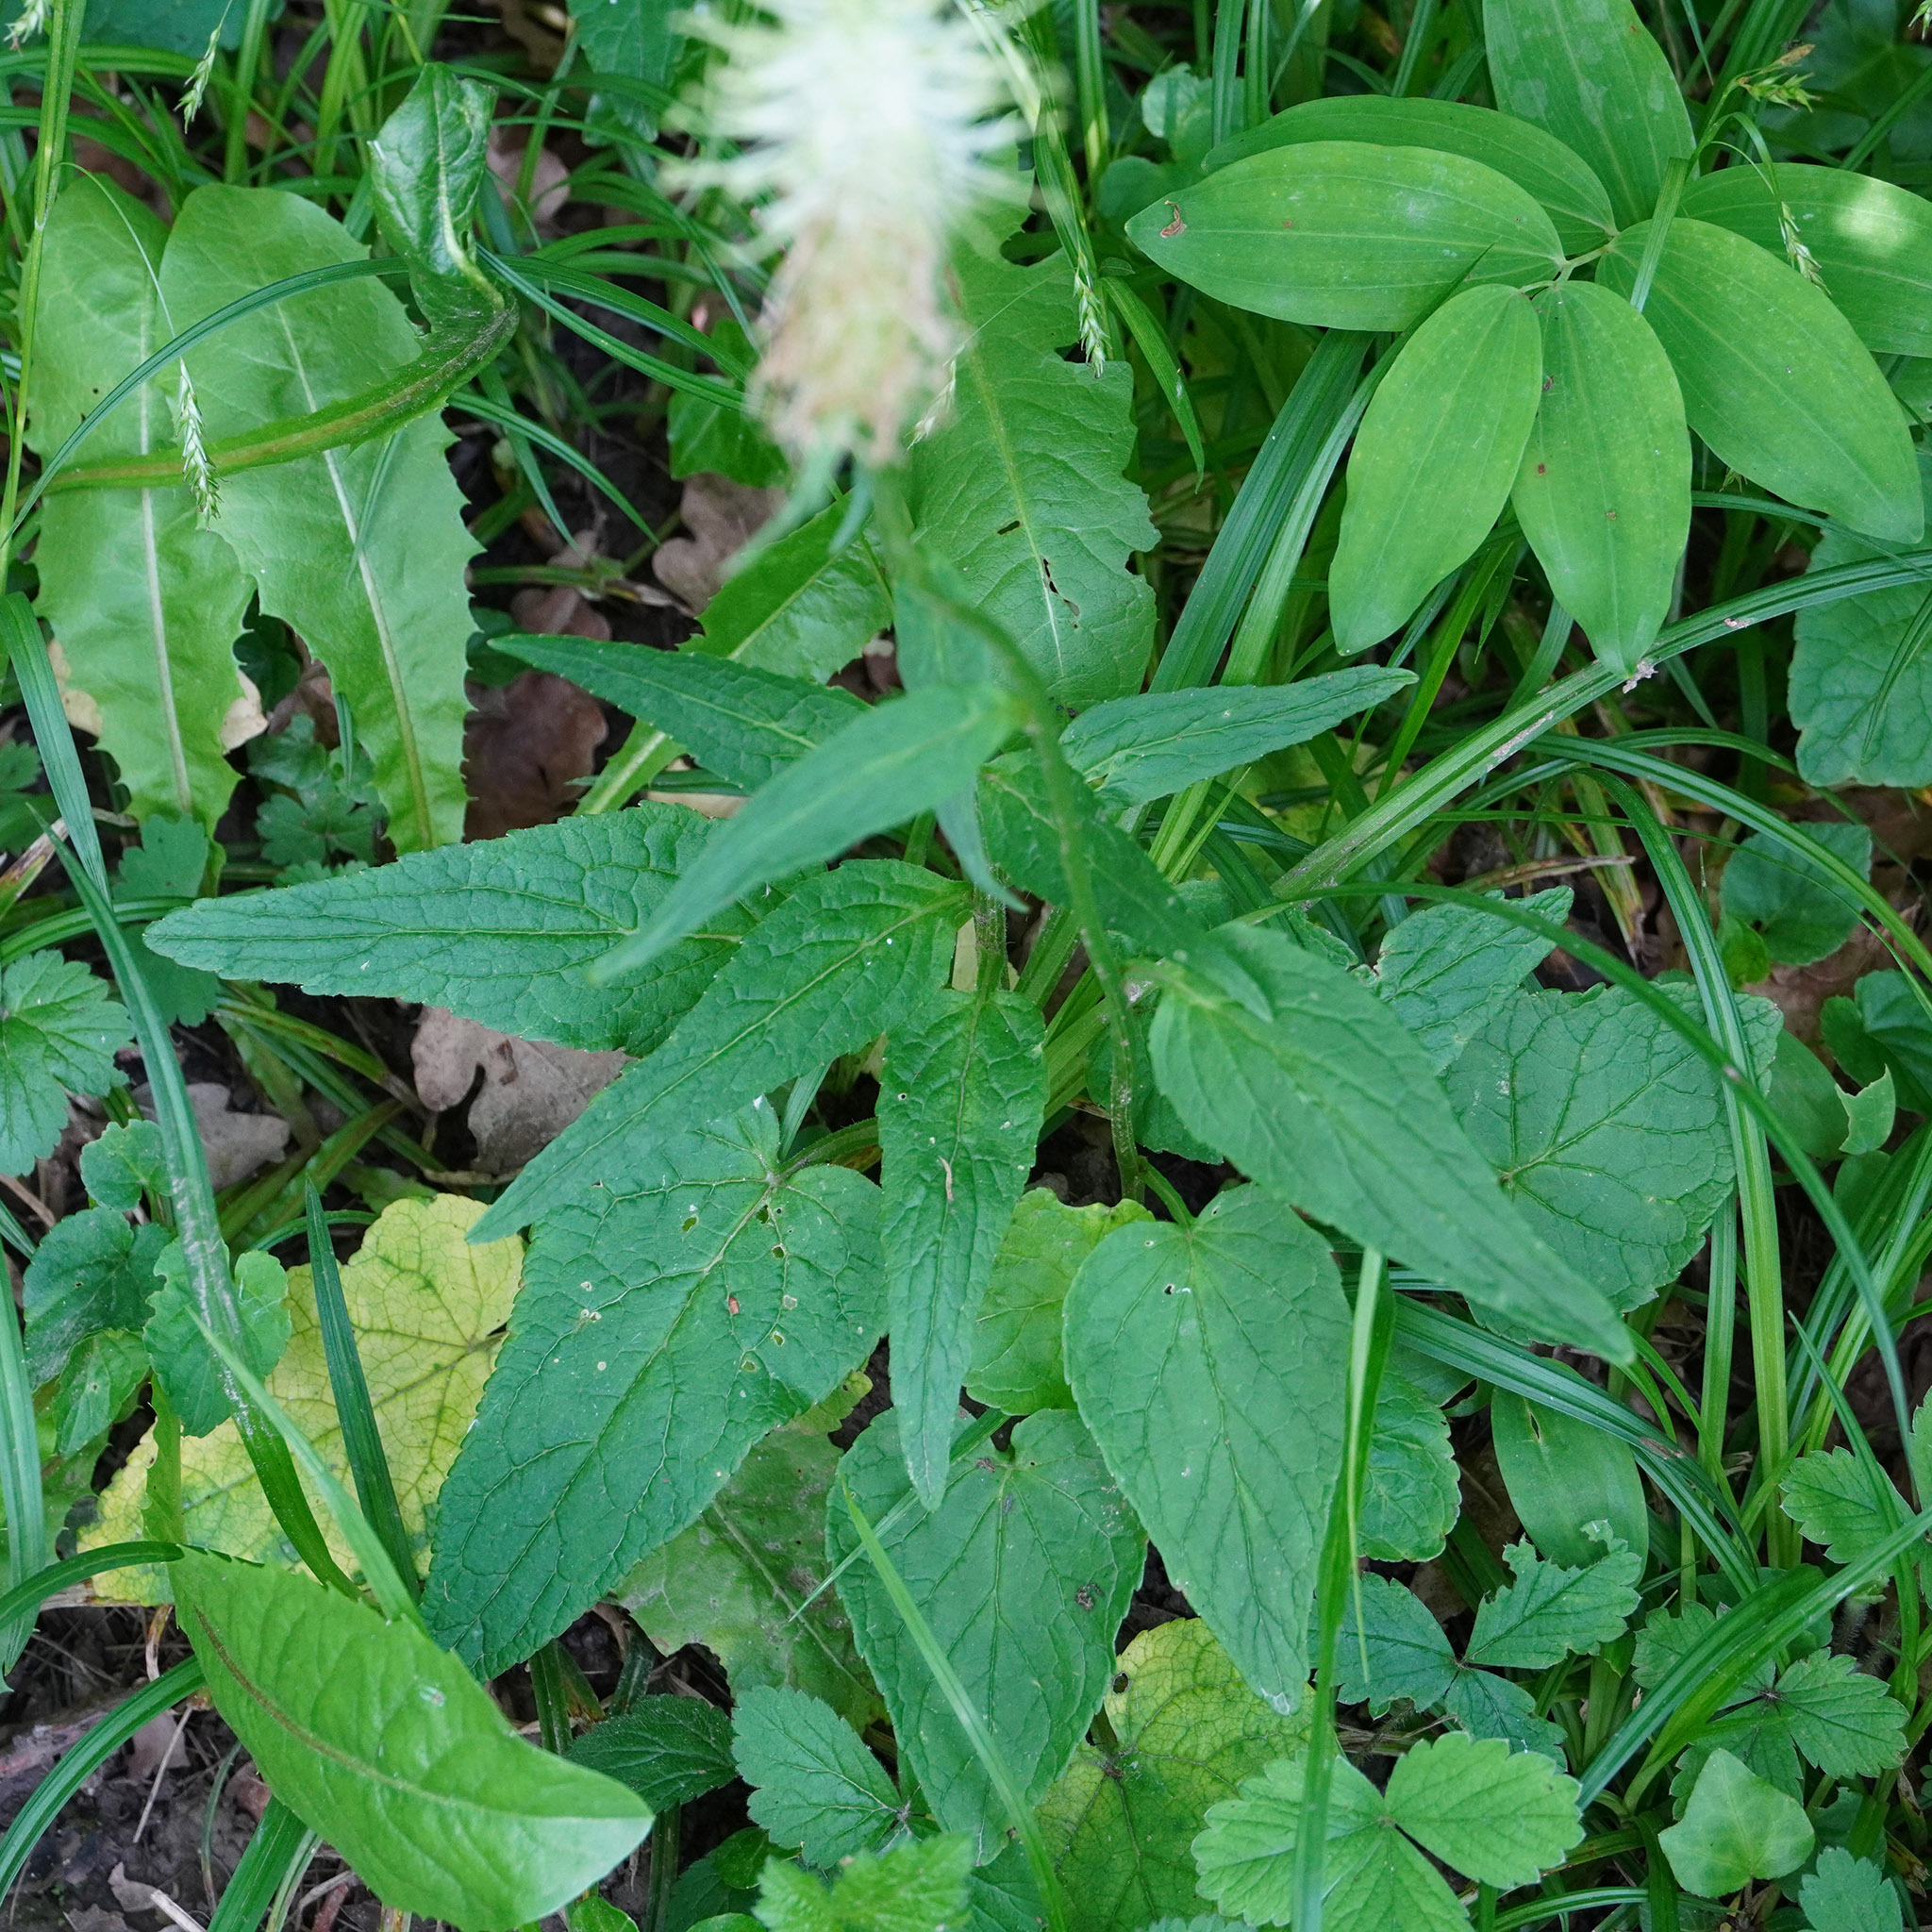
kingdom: Plantae
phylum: Tracheophyta
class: Magnoliopsida
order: Asterales
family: Campanulaceae
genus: Phyteuma
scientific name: Phyteuma spicatum
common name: Spiked rampion
